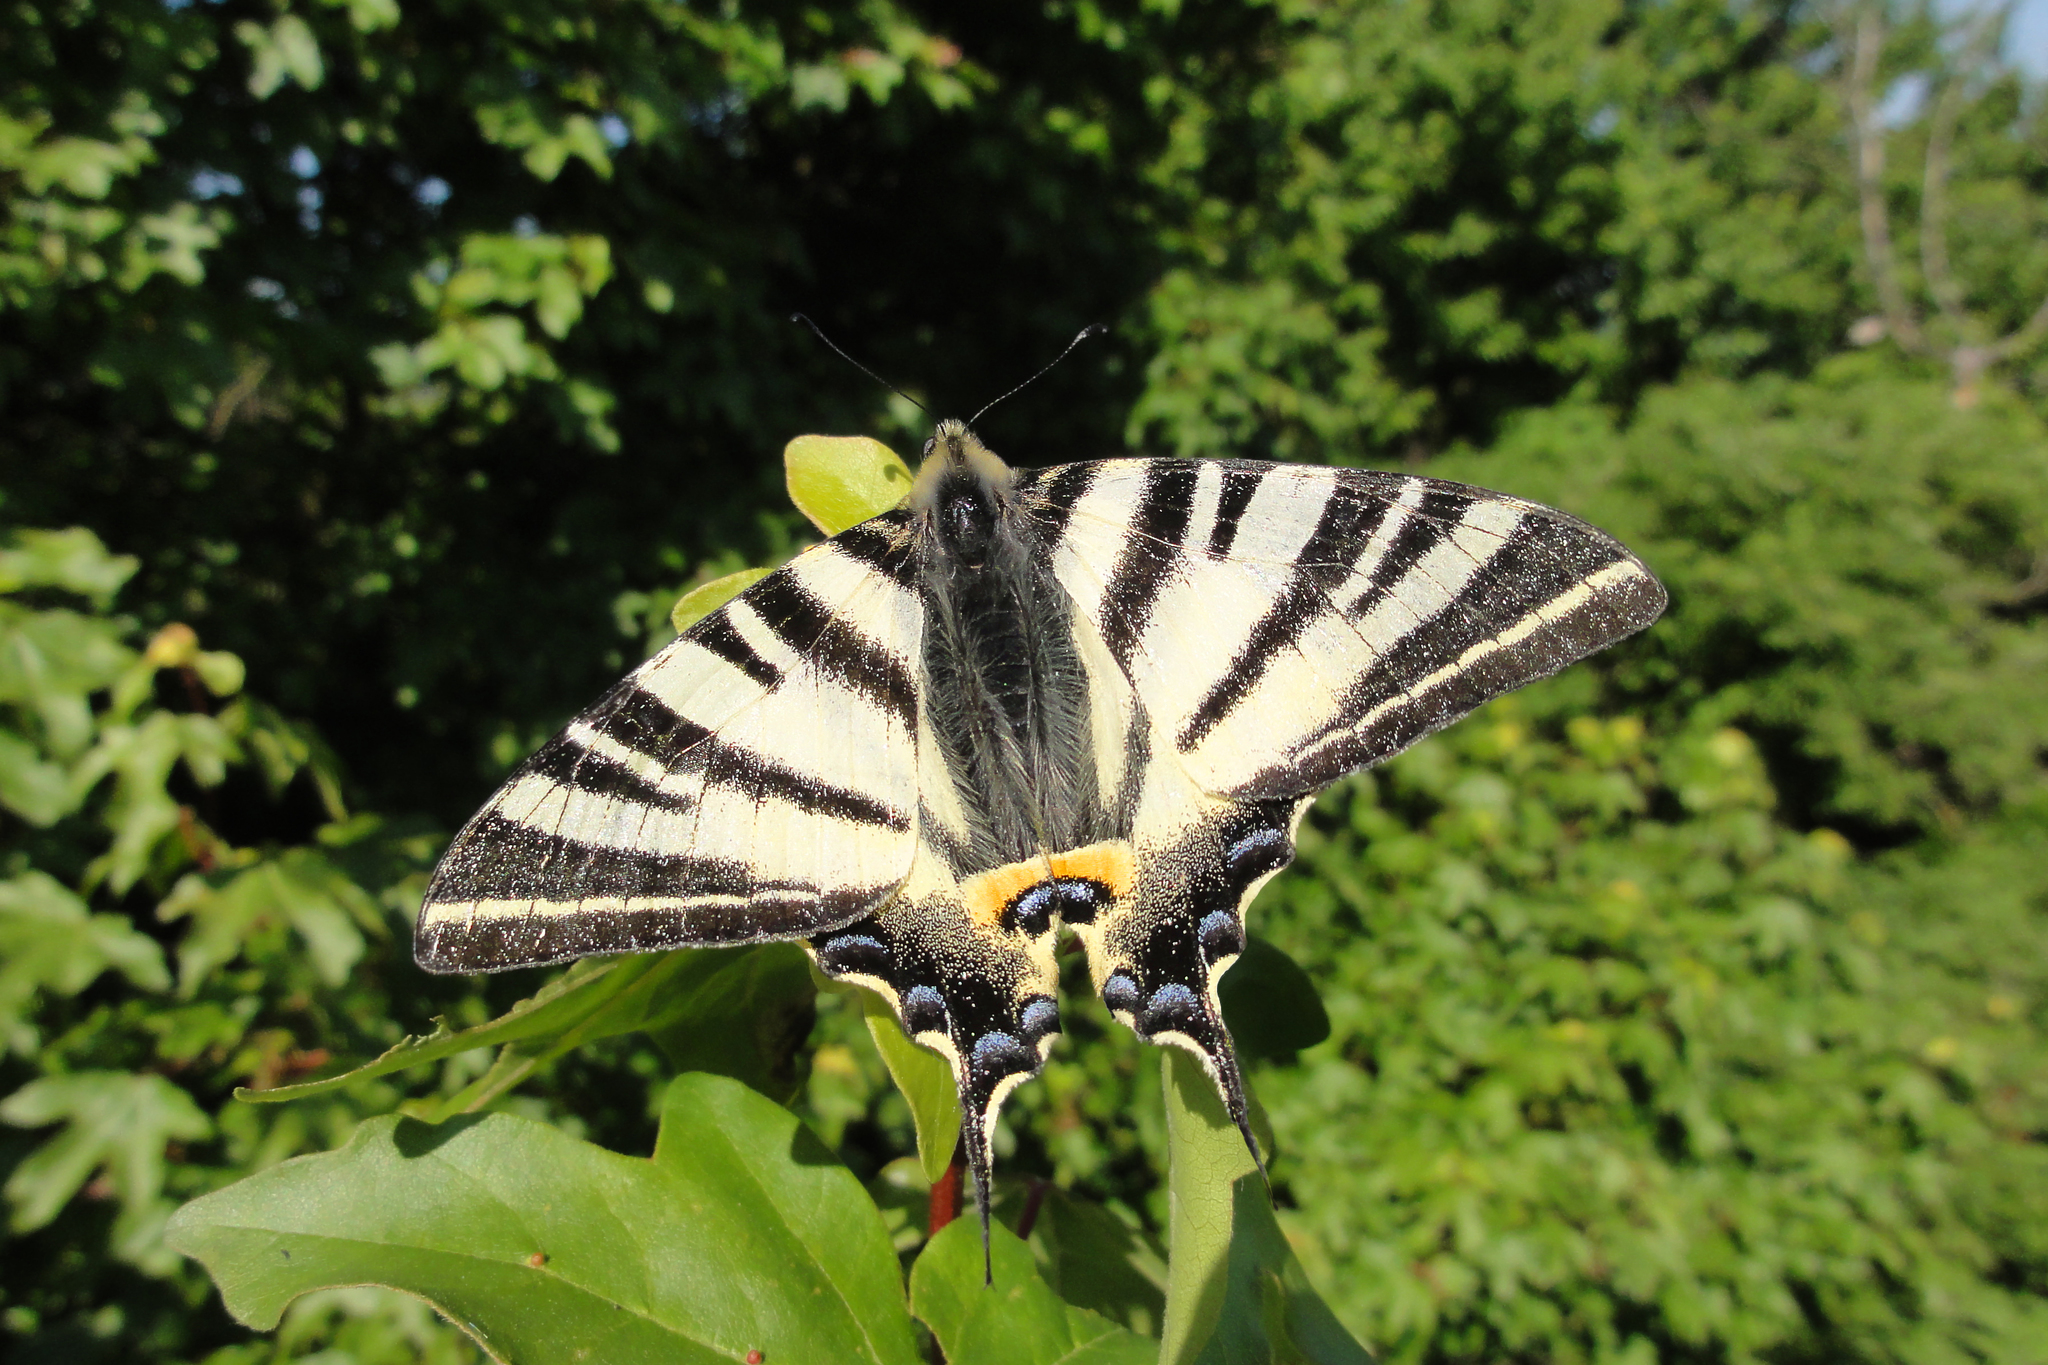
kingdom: Animalia
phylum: Arthropoda
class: Insecta
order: Lepidoptera
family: Papilionidae
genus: Iphiclides
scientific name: Iphiclides podalirius
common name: Scarce swallowtail
